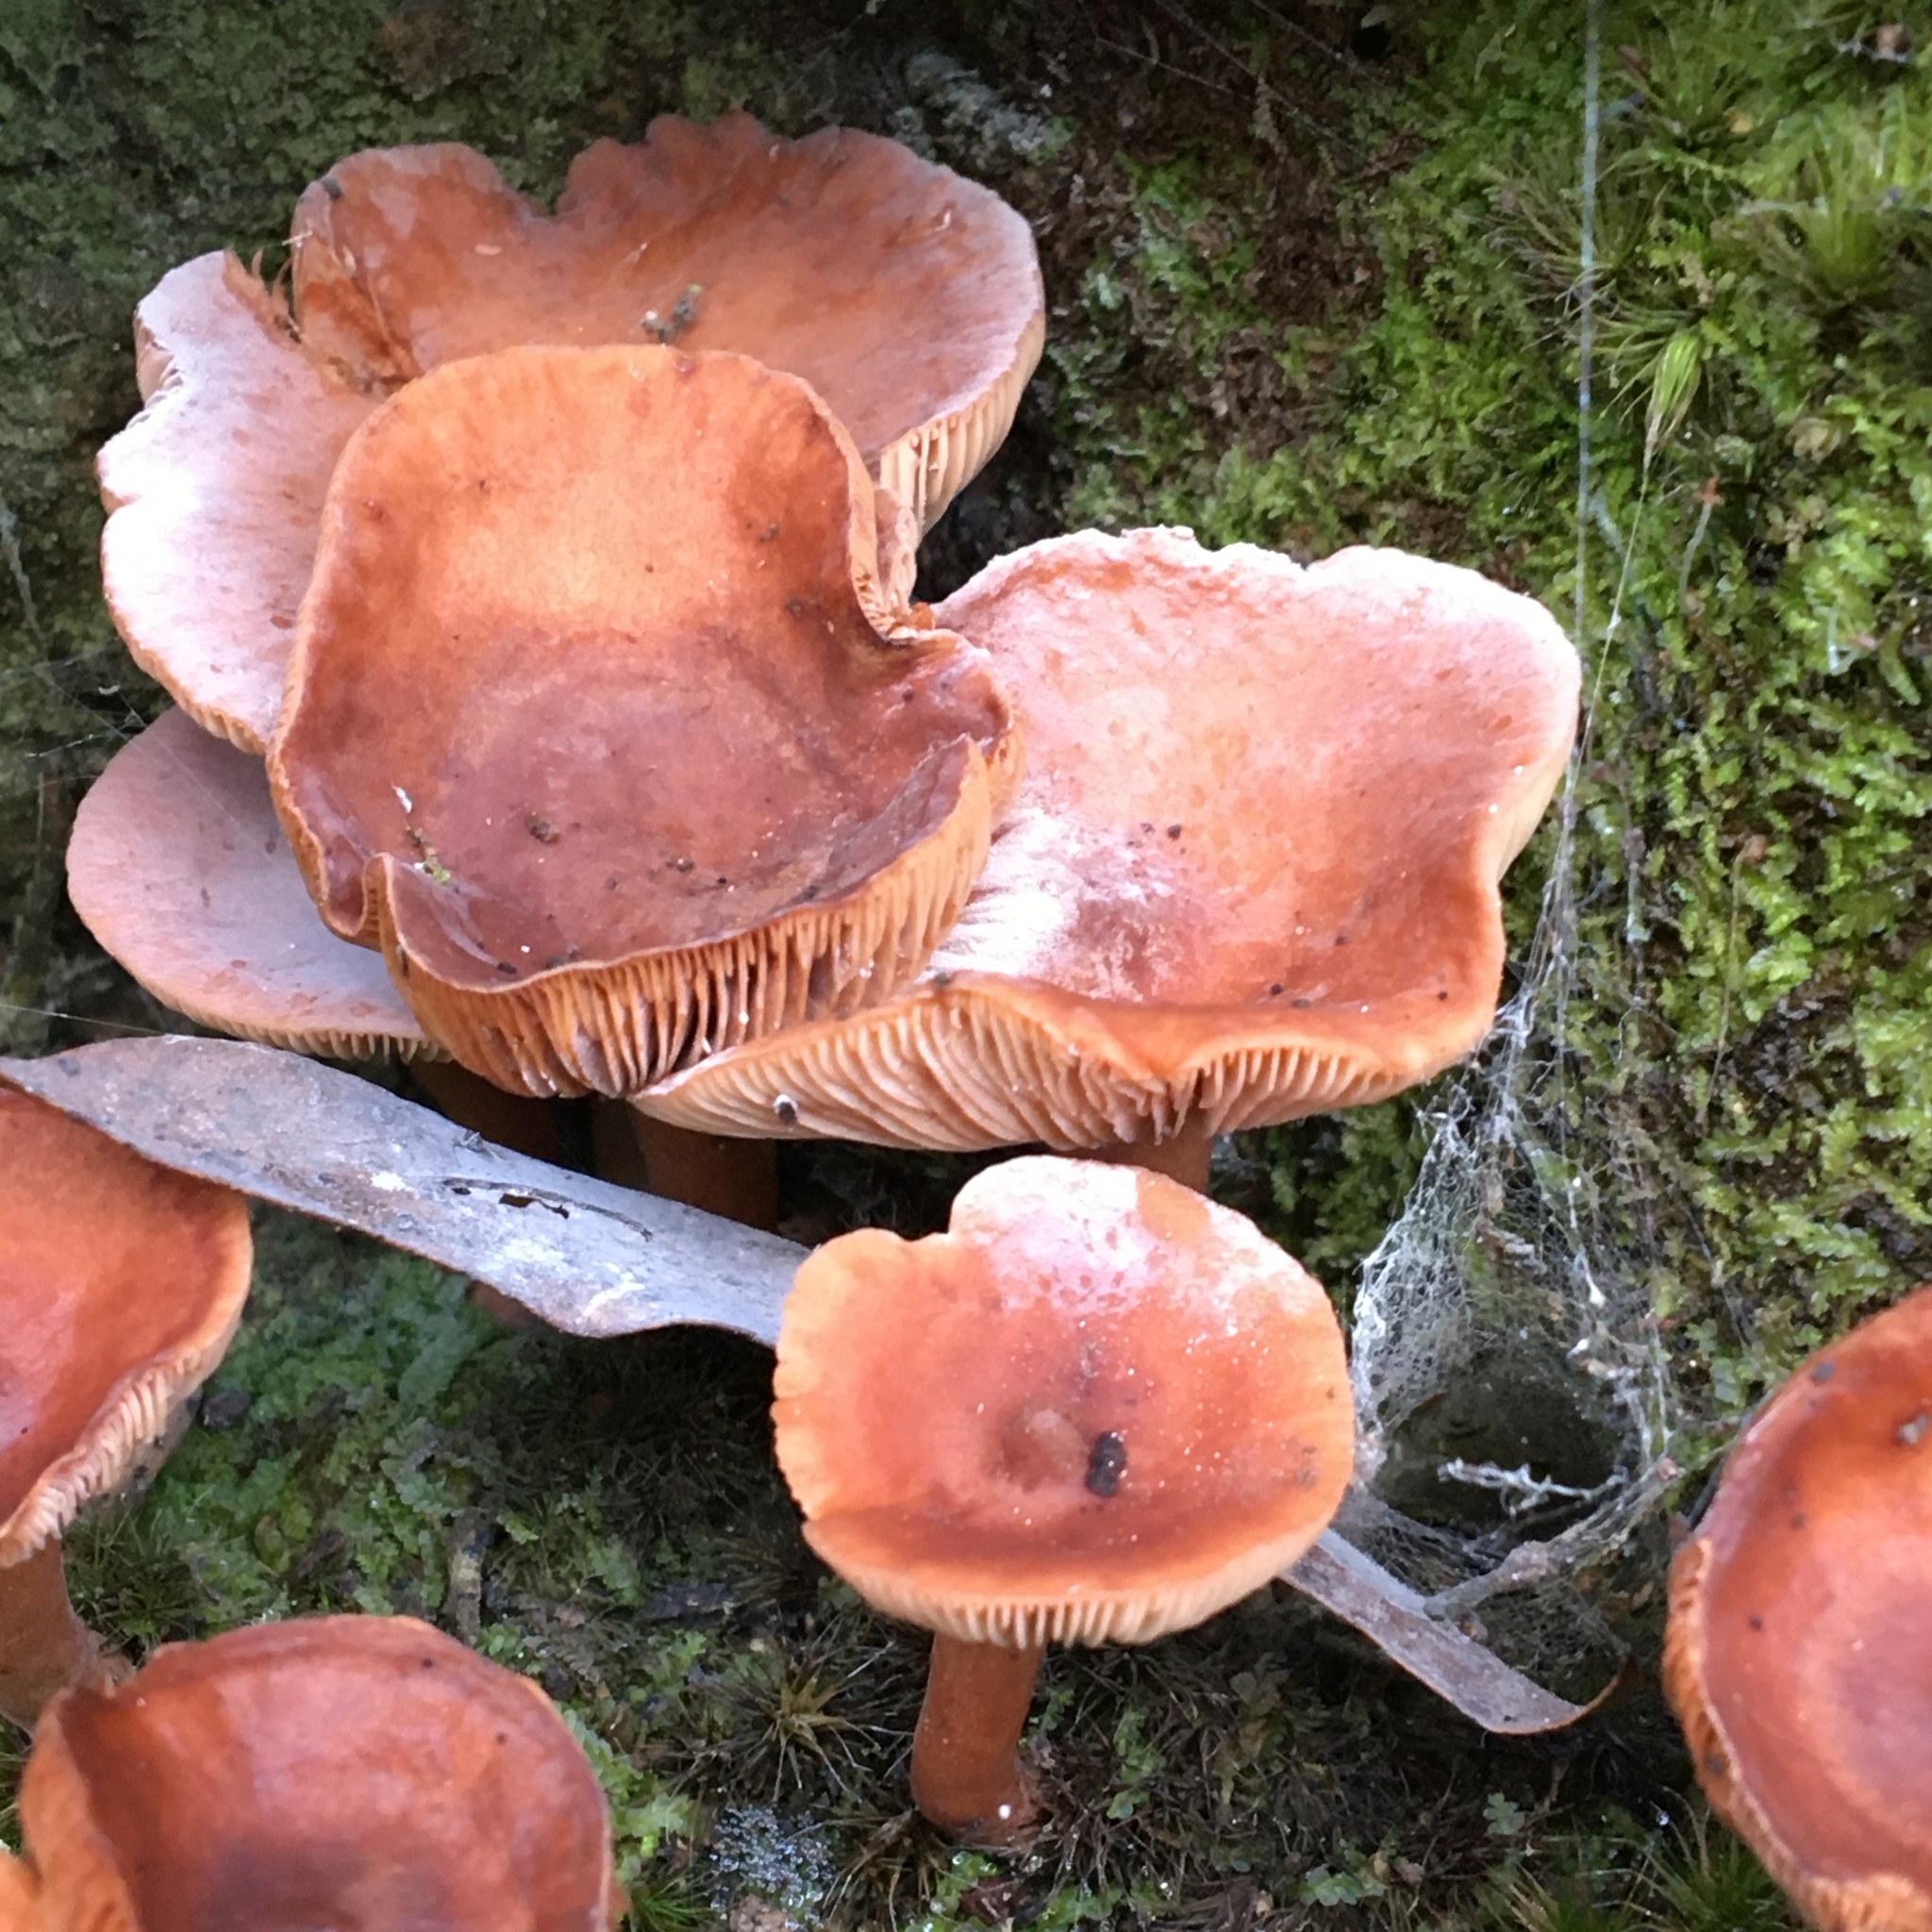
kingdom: Fungi
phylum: Basidiomycota
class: Agaricomycetes
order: Russulales
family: Russulaceae
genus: Lactarius
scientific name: Lactarius eucalypti
